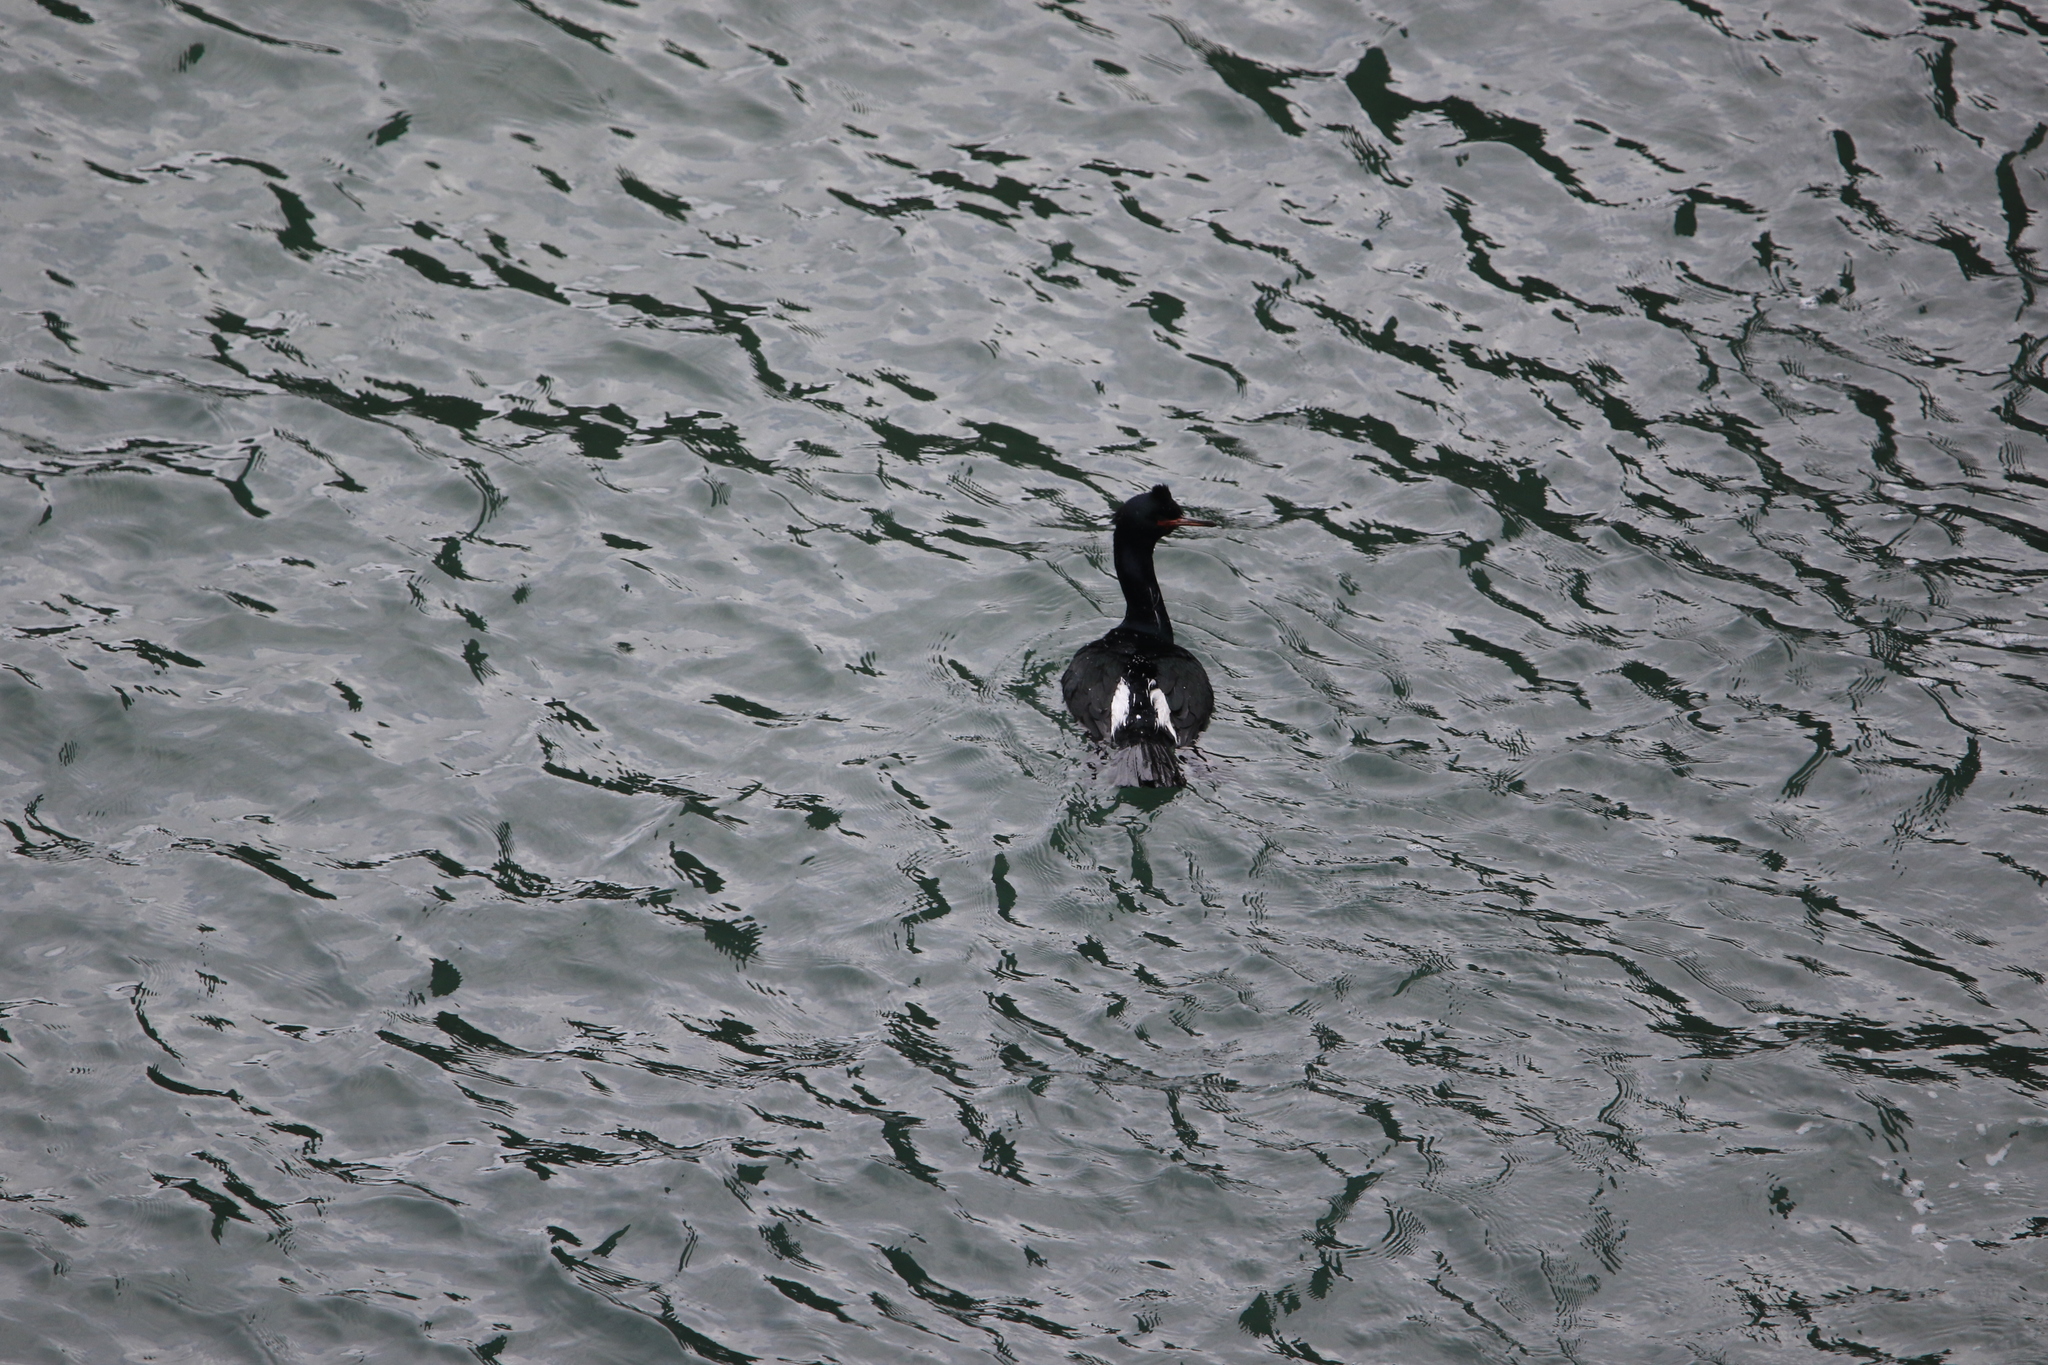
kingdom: Animalia
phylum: Chordata
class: Aves
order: Suliformes
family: Phalacrocoracidae
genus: Phalacrocorax
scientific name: Phalacrocorax pelagicus
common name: Pelagic cormorant
